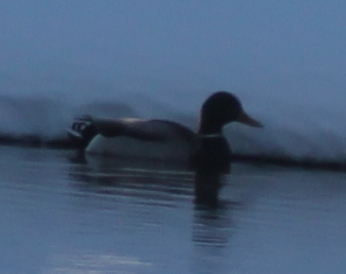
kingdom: Animalia
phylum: Chordata
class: Aves
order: Anseriformes
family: Anatidae
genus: Anas
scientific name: Anas platyrhynchos
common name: Mallard
